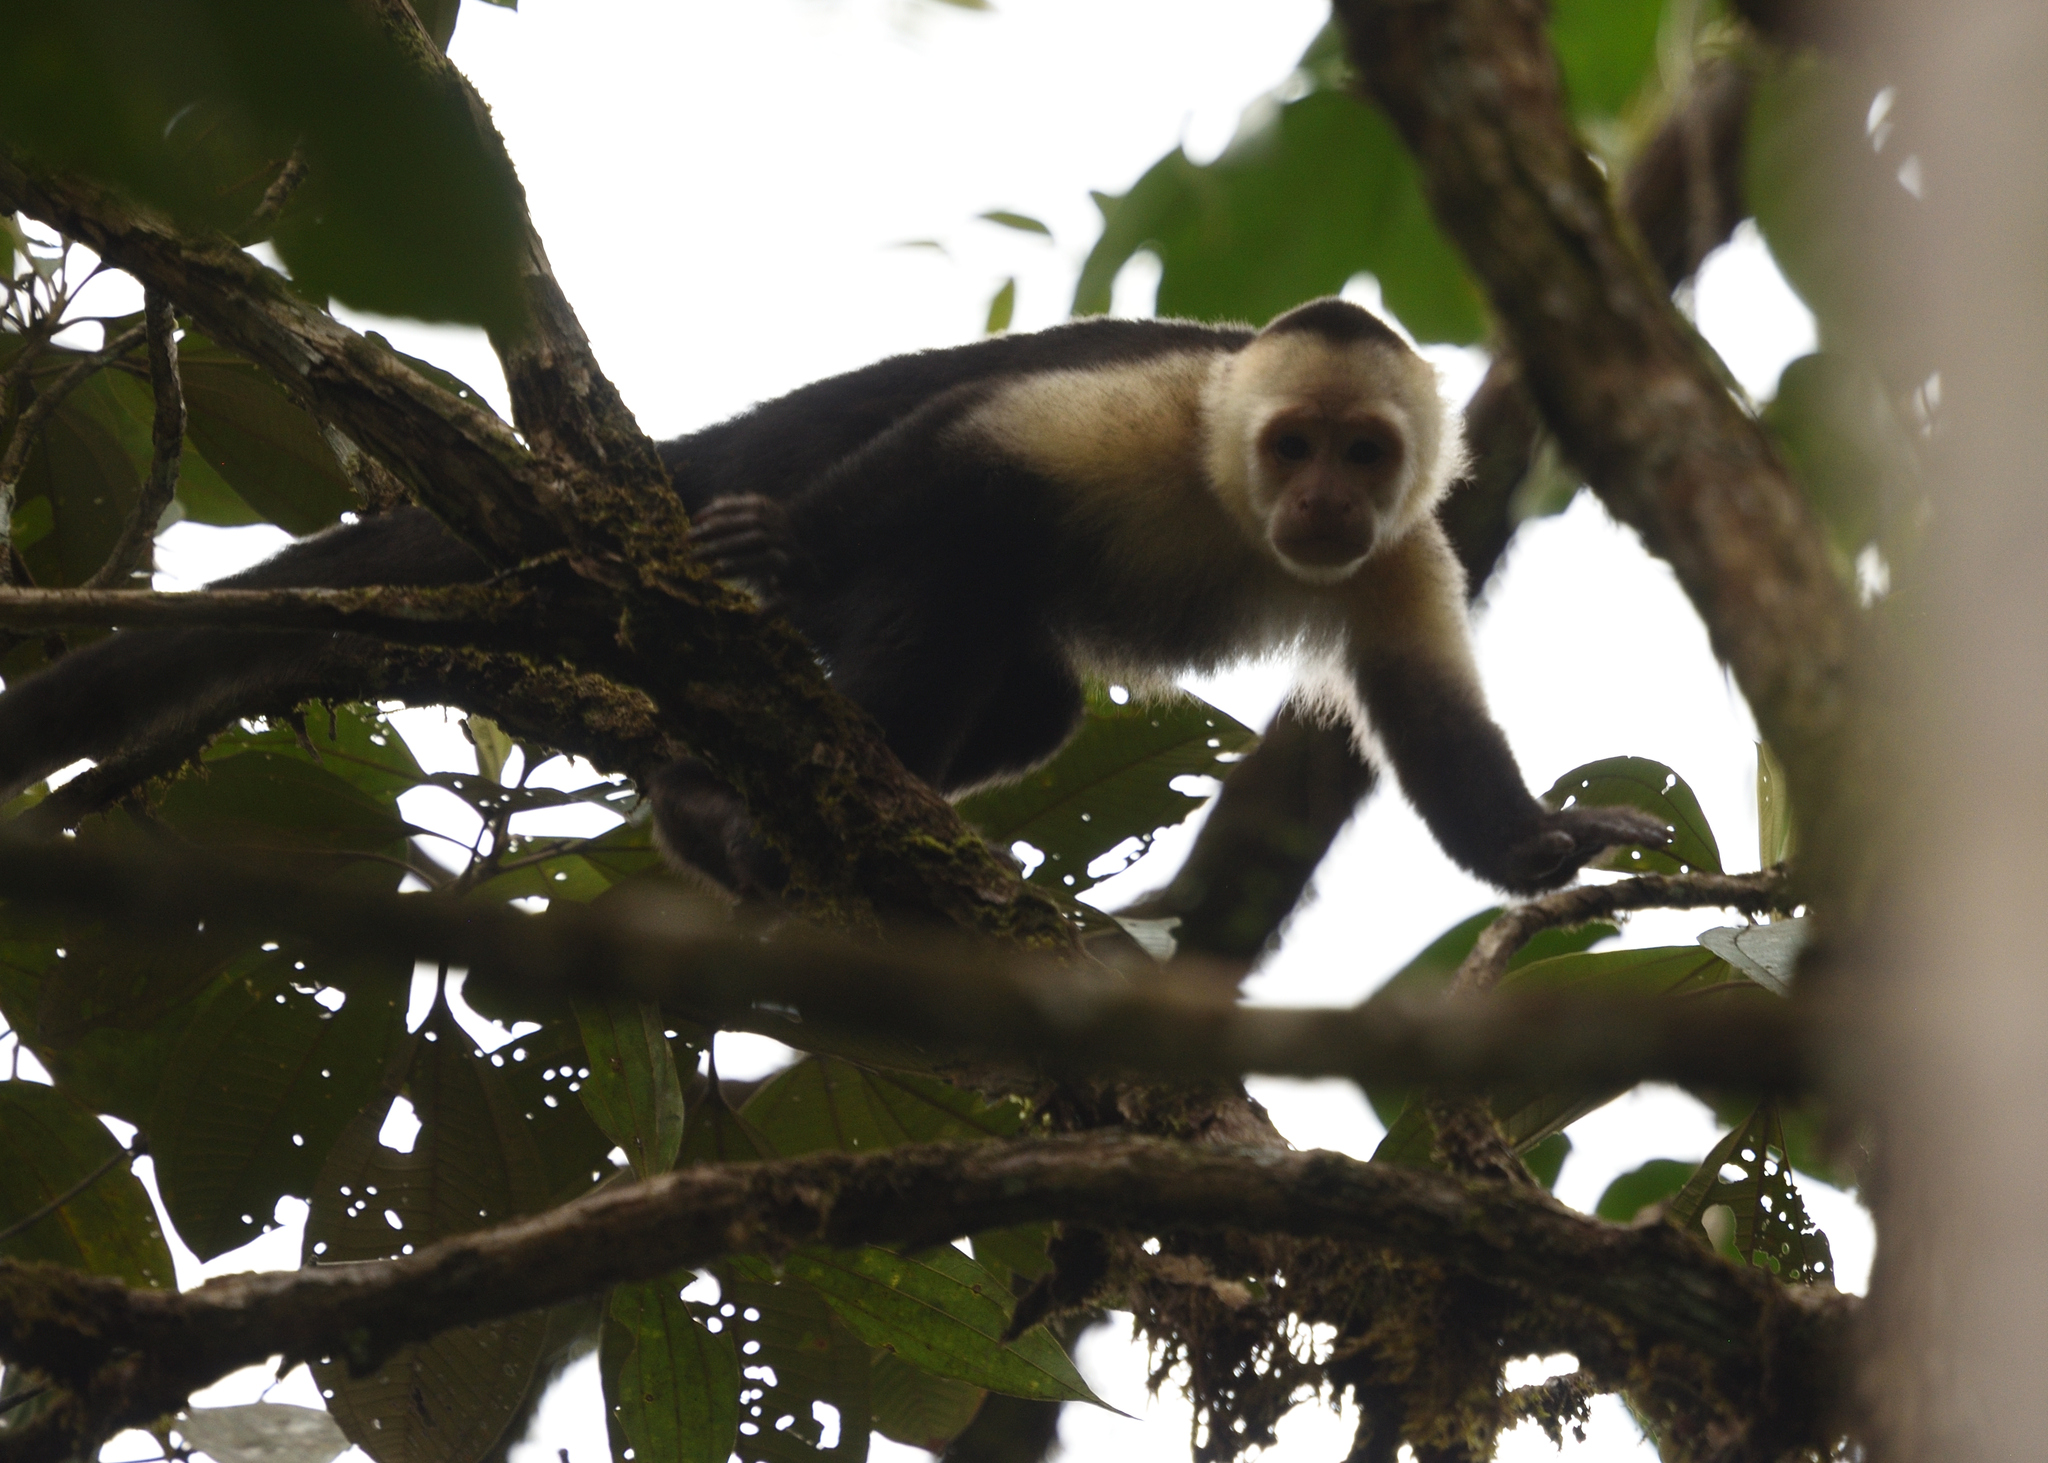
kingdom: Animalia
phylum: Chordata
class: Mammalia
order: Primates
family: Cebidae
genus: Cebus
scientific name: Cebus capucinus
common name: White-headed capuchin
